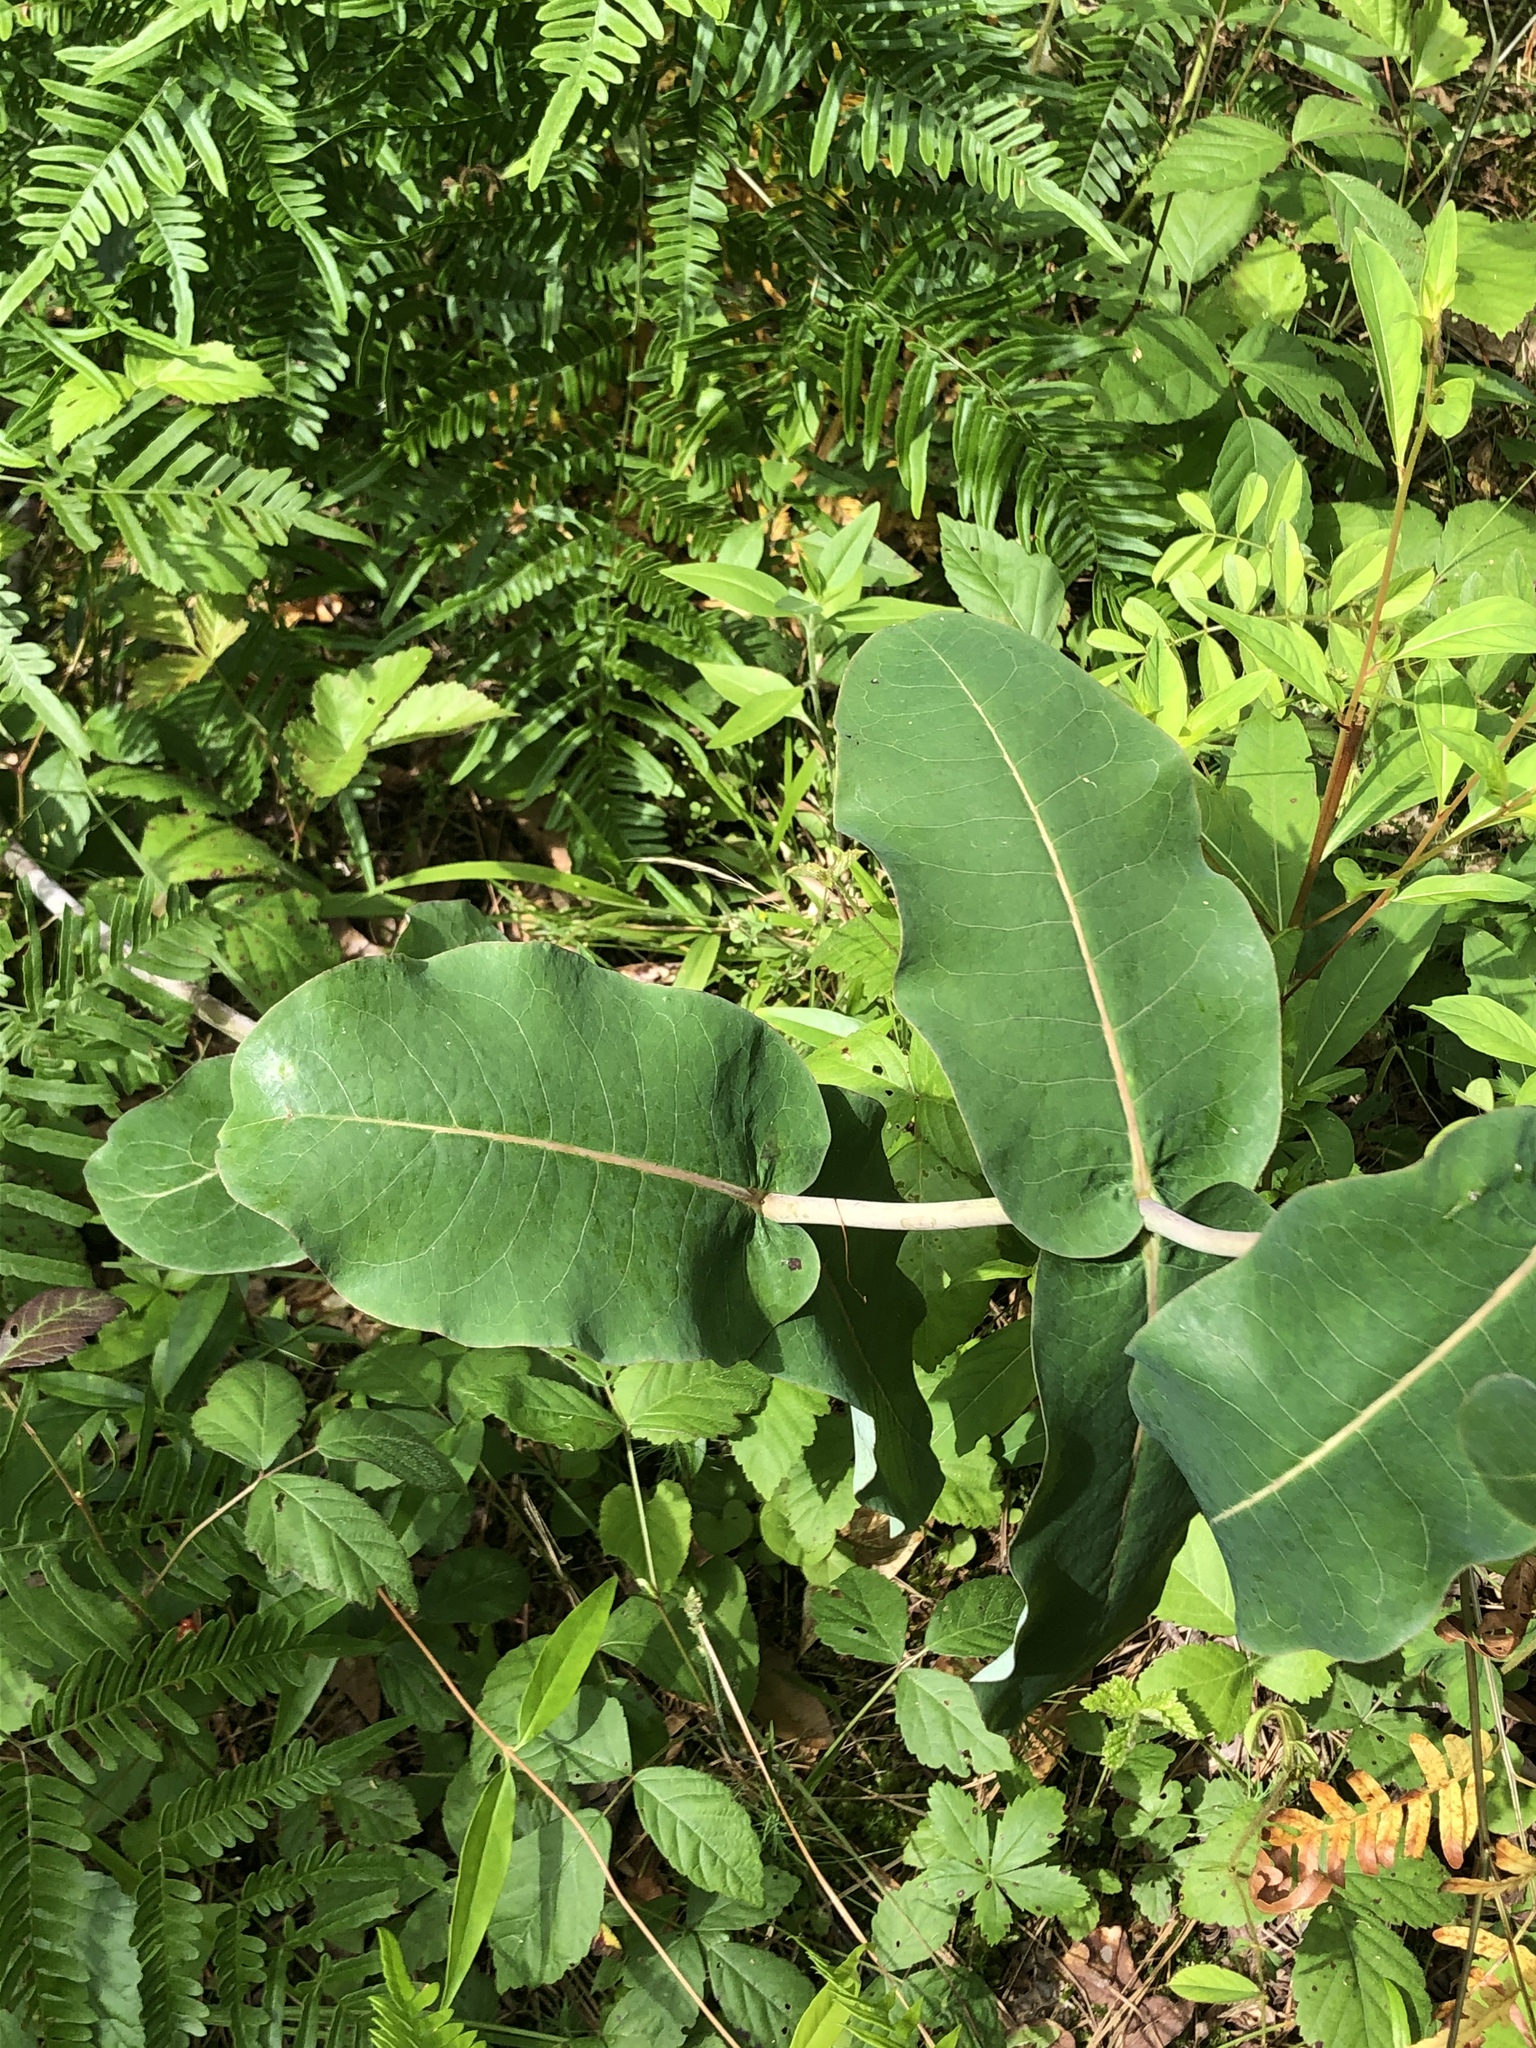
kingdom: Plantae
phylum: Tracheophyta
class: Magnoliopsida
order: Gentianales
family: Apocynaceae
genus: Asclepias
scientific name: Asclepias amplexicaulis
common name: Blunt-leaf milkweed
